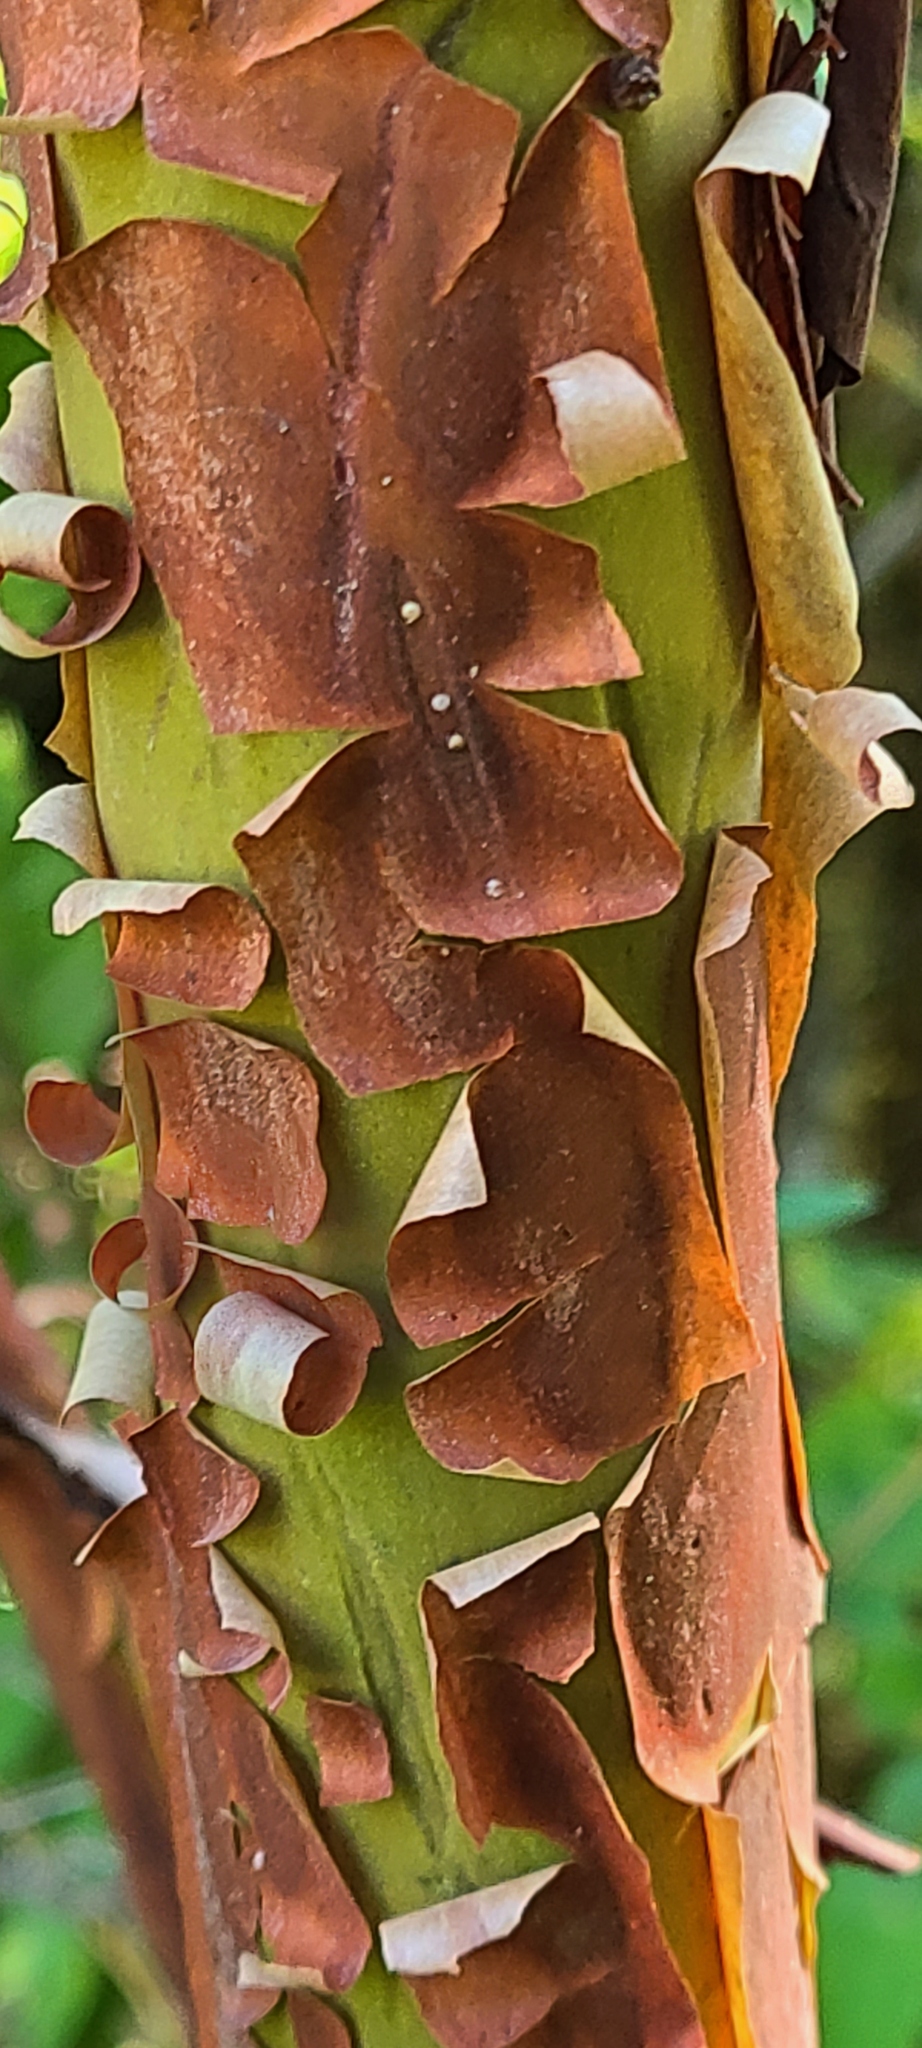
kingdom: Plantae
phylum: Tracheophyta
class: Magnoliopsida
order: Ericales
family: Ericaceae
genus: Arbutus
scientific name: Arbutus menziesii
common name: Pacific madrone
